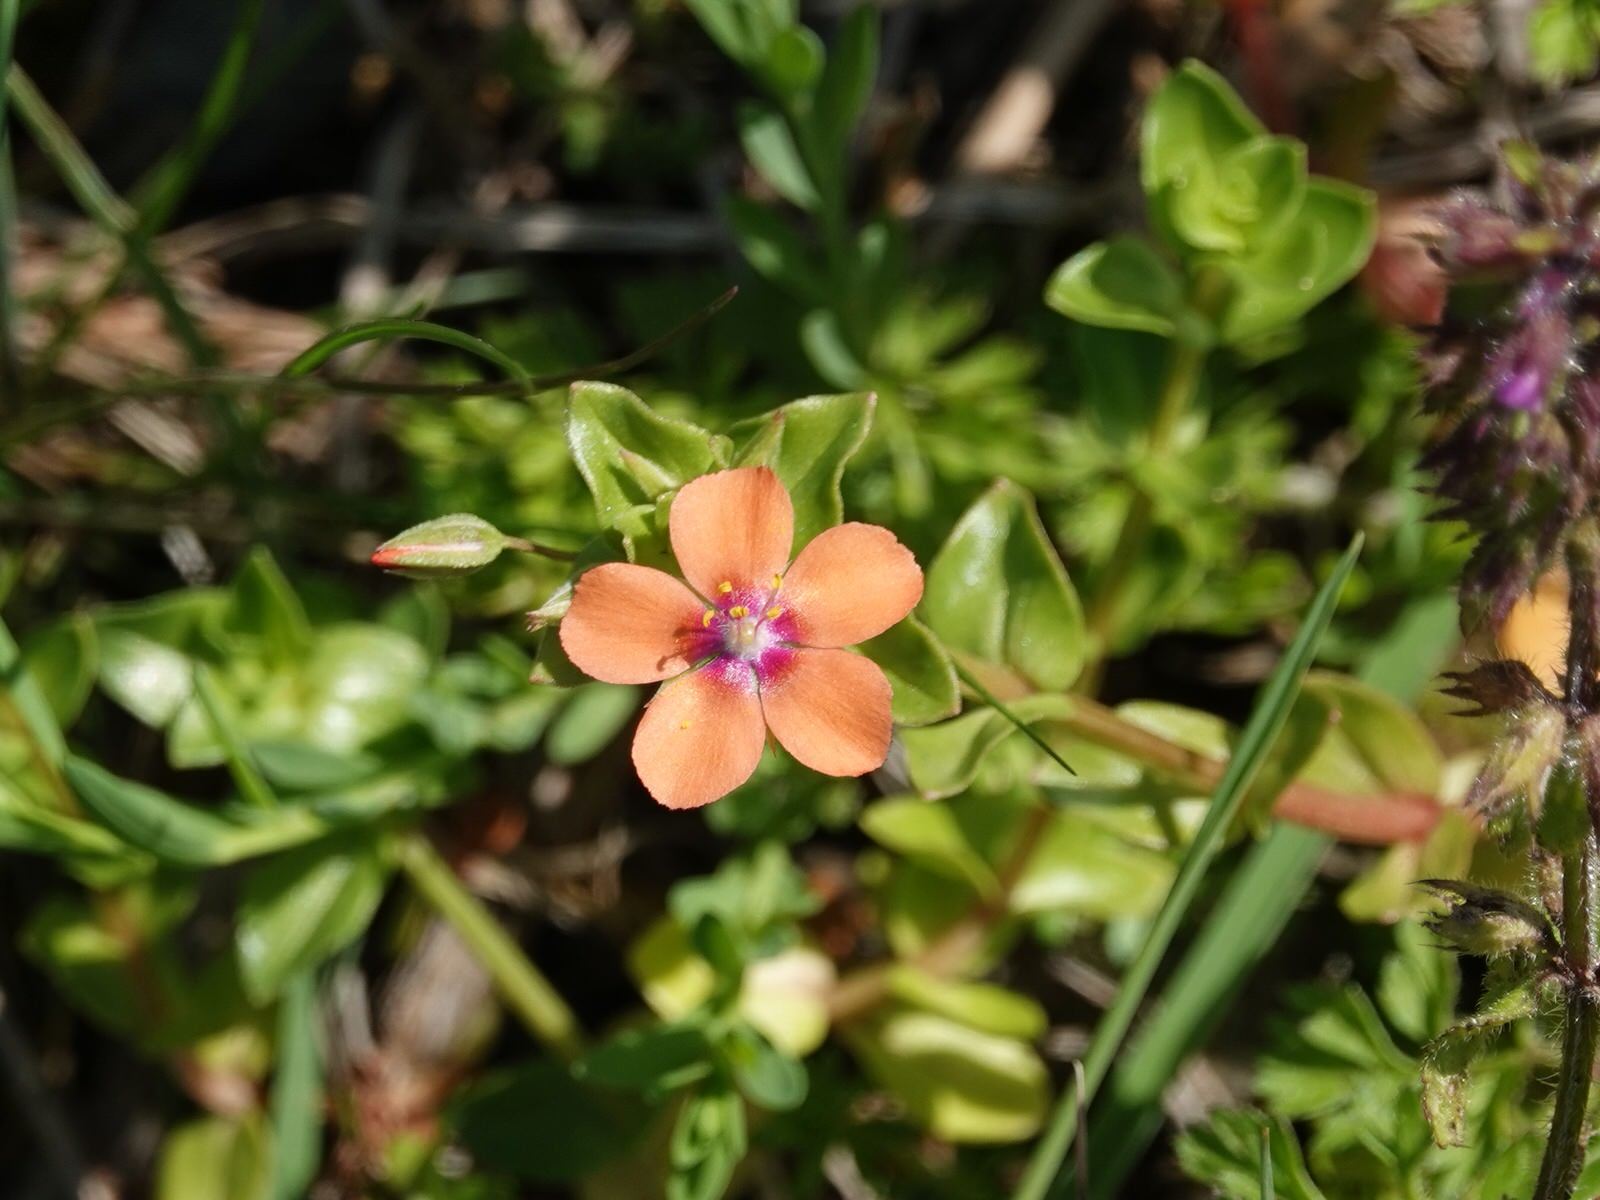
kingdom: Plantae
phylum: Tracheophyta
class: Magnoliopsida
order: Ericales
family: Primulaceae
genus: Lysimachia
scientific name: Lysimachia arvensis
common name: Scarlet pimpernel
